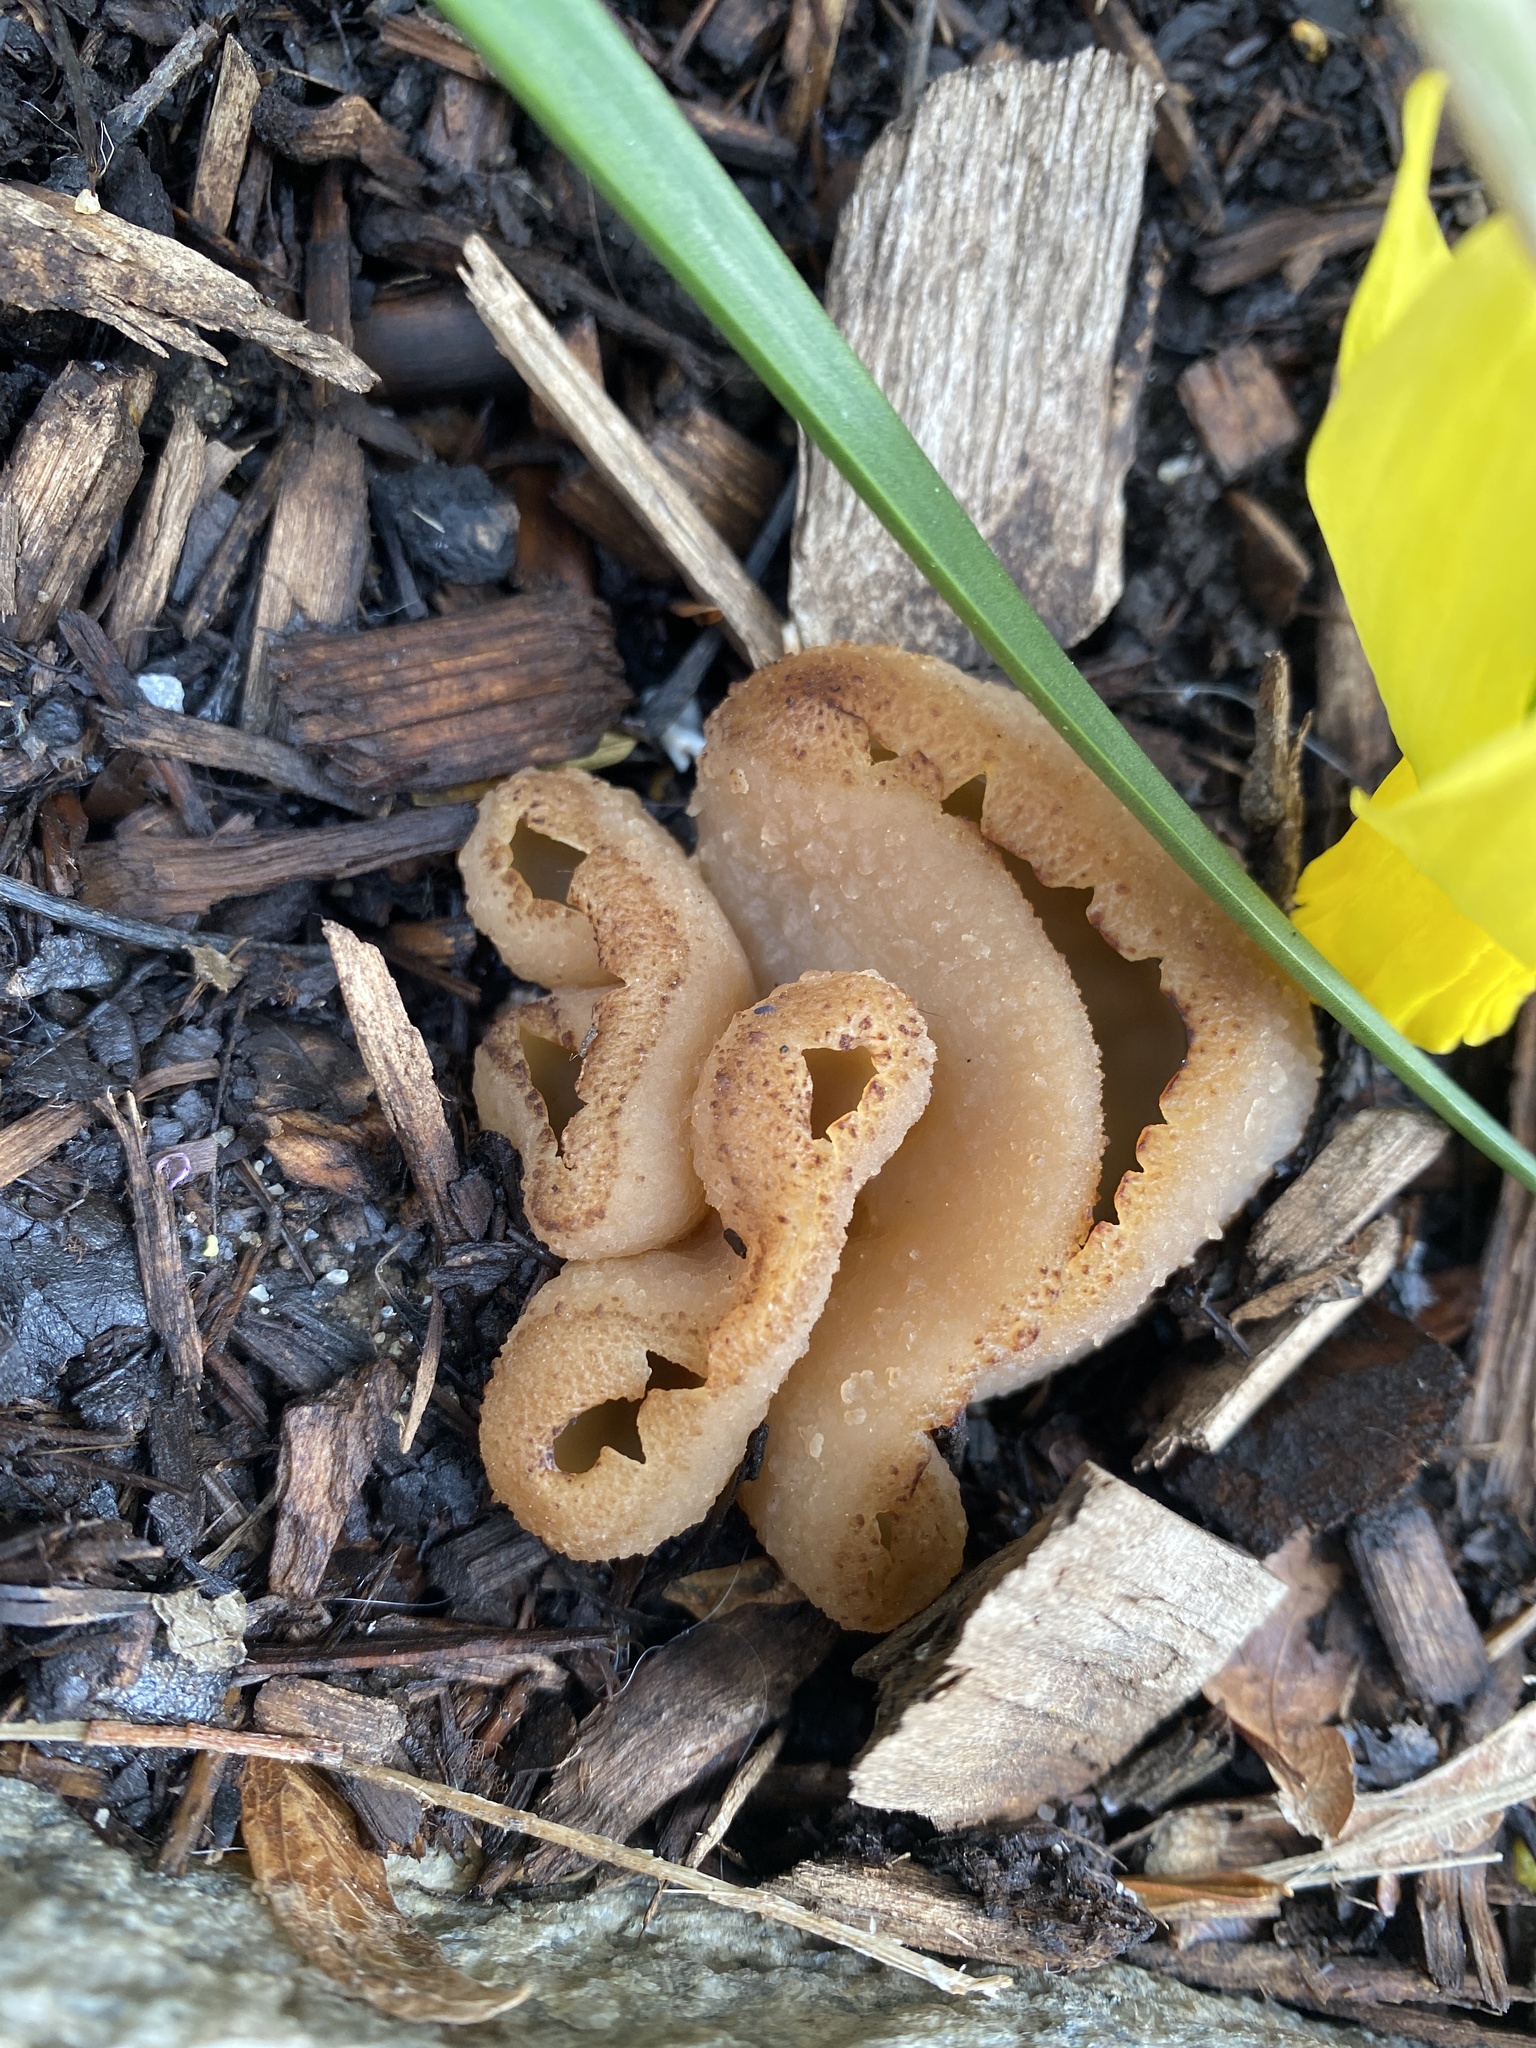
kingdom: Fungi
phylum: Ascomycota
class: Pezizomycetes
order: Pezizales
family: Pezizaceae
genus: Peziza
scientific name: Peziza varia
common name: Layered cup
